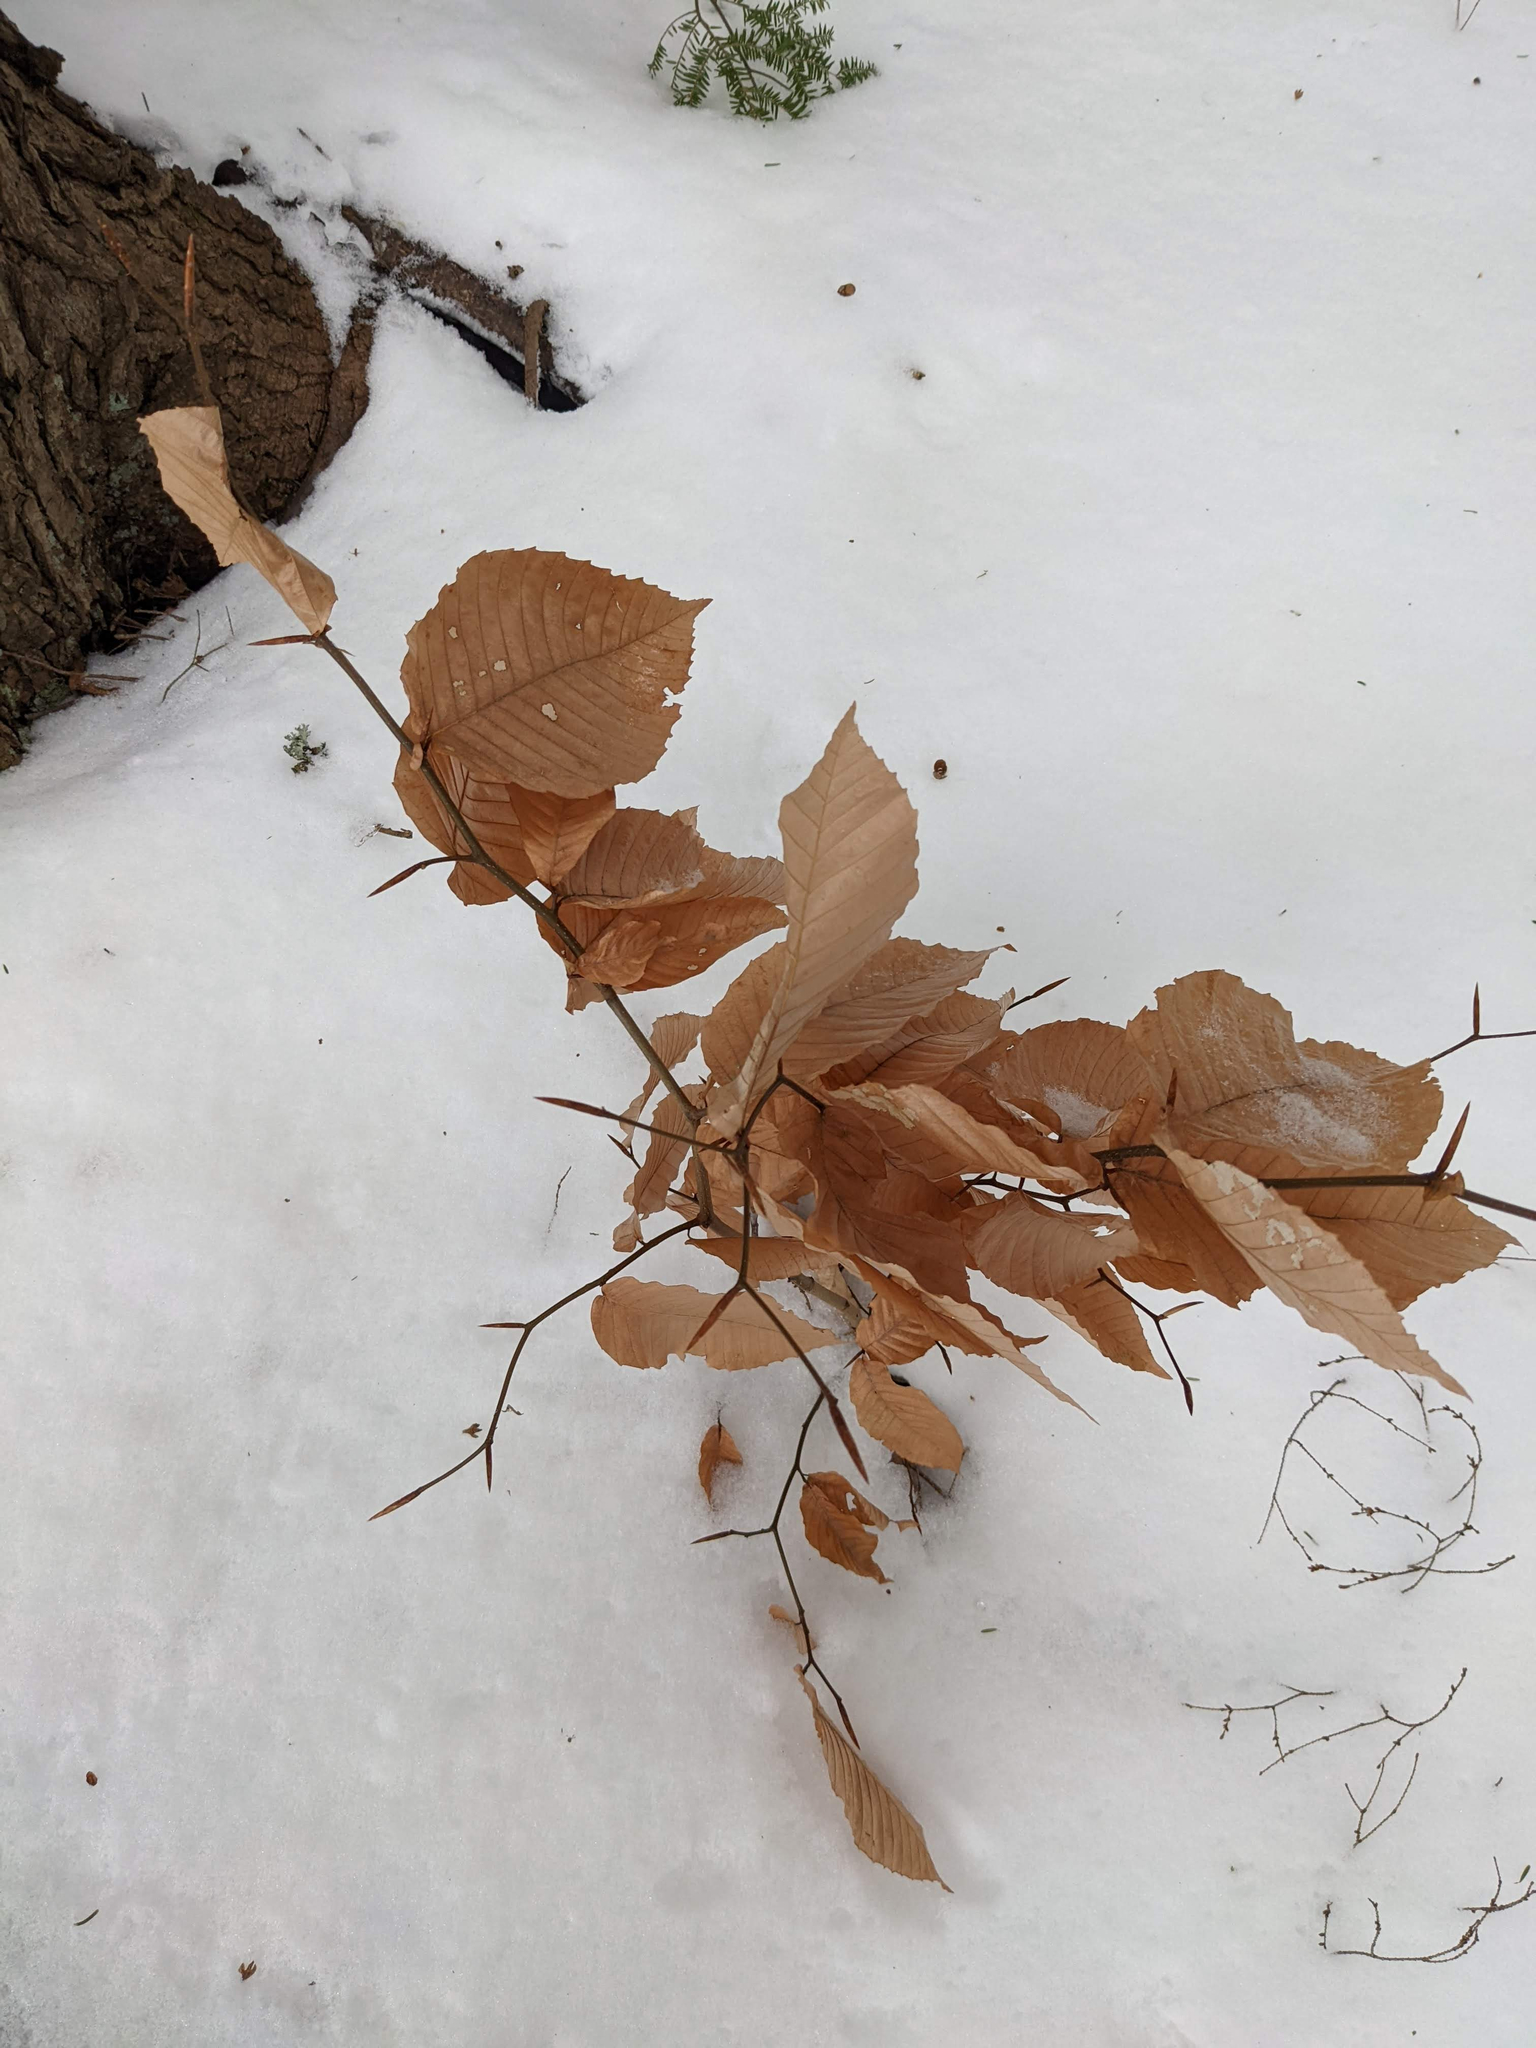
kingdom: Plantae
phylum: Tracheophyta
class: Magnoliopsida
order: Fagales
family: Fagaceae
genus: Fagus
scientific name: Fagus grandifolia
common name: American beech
